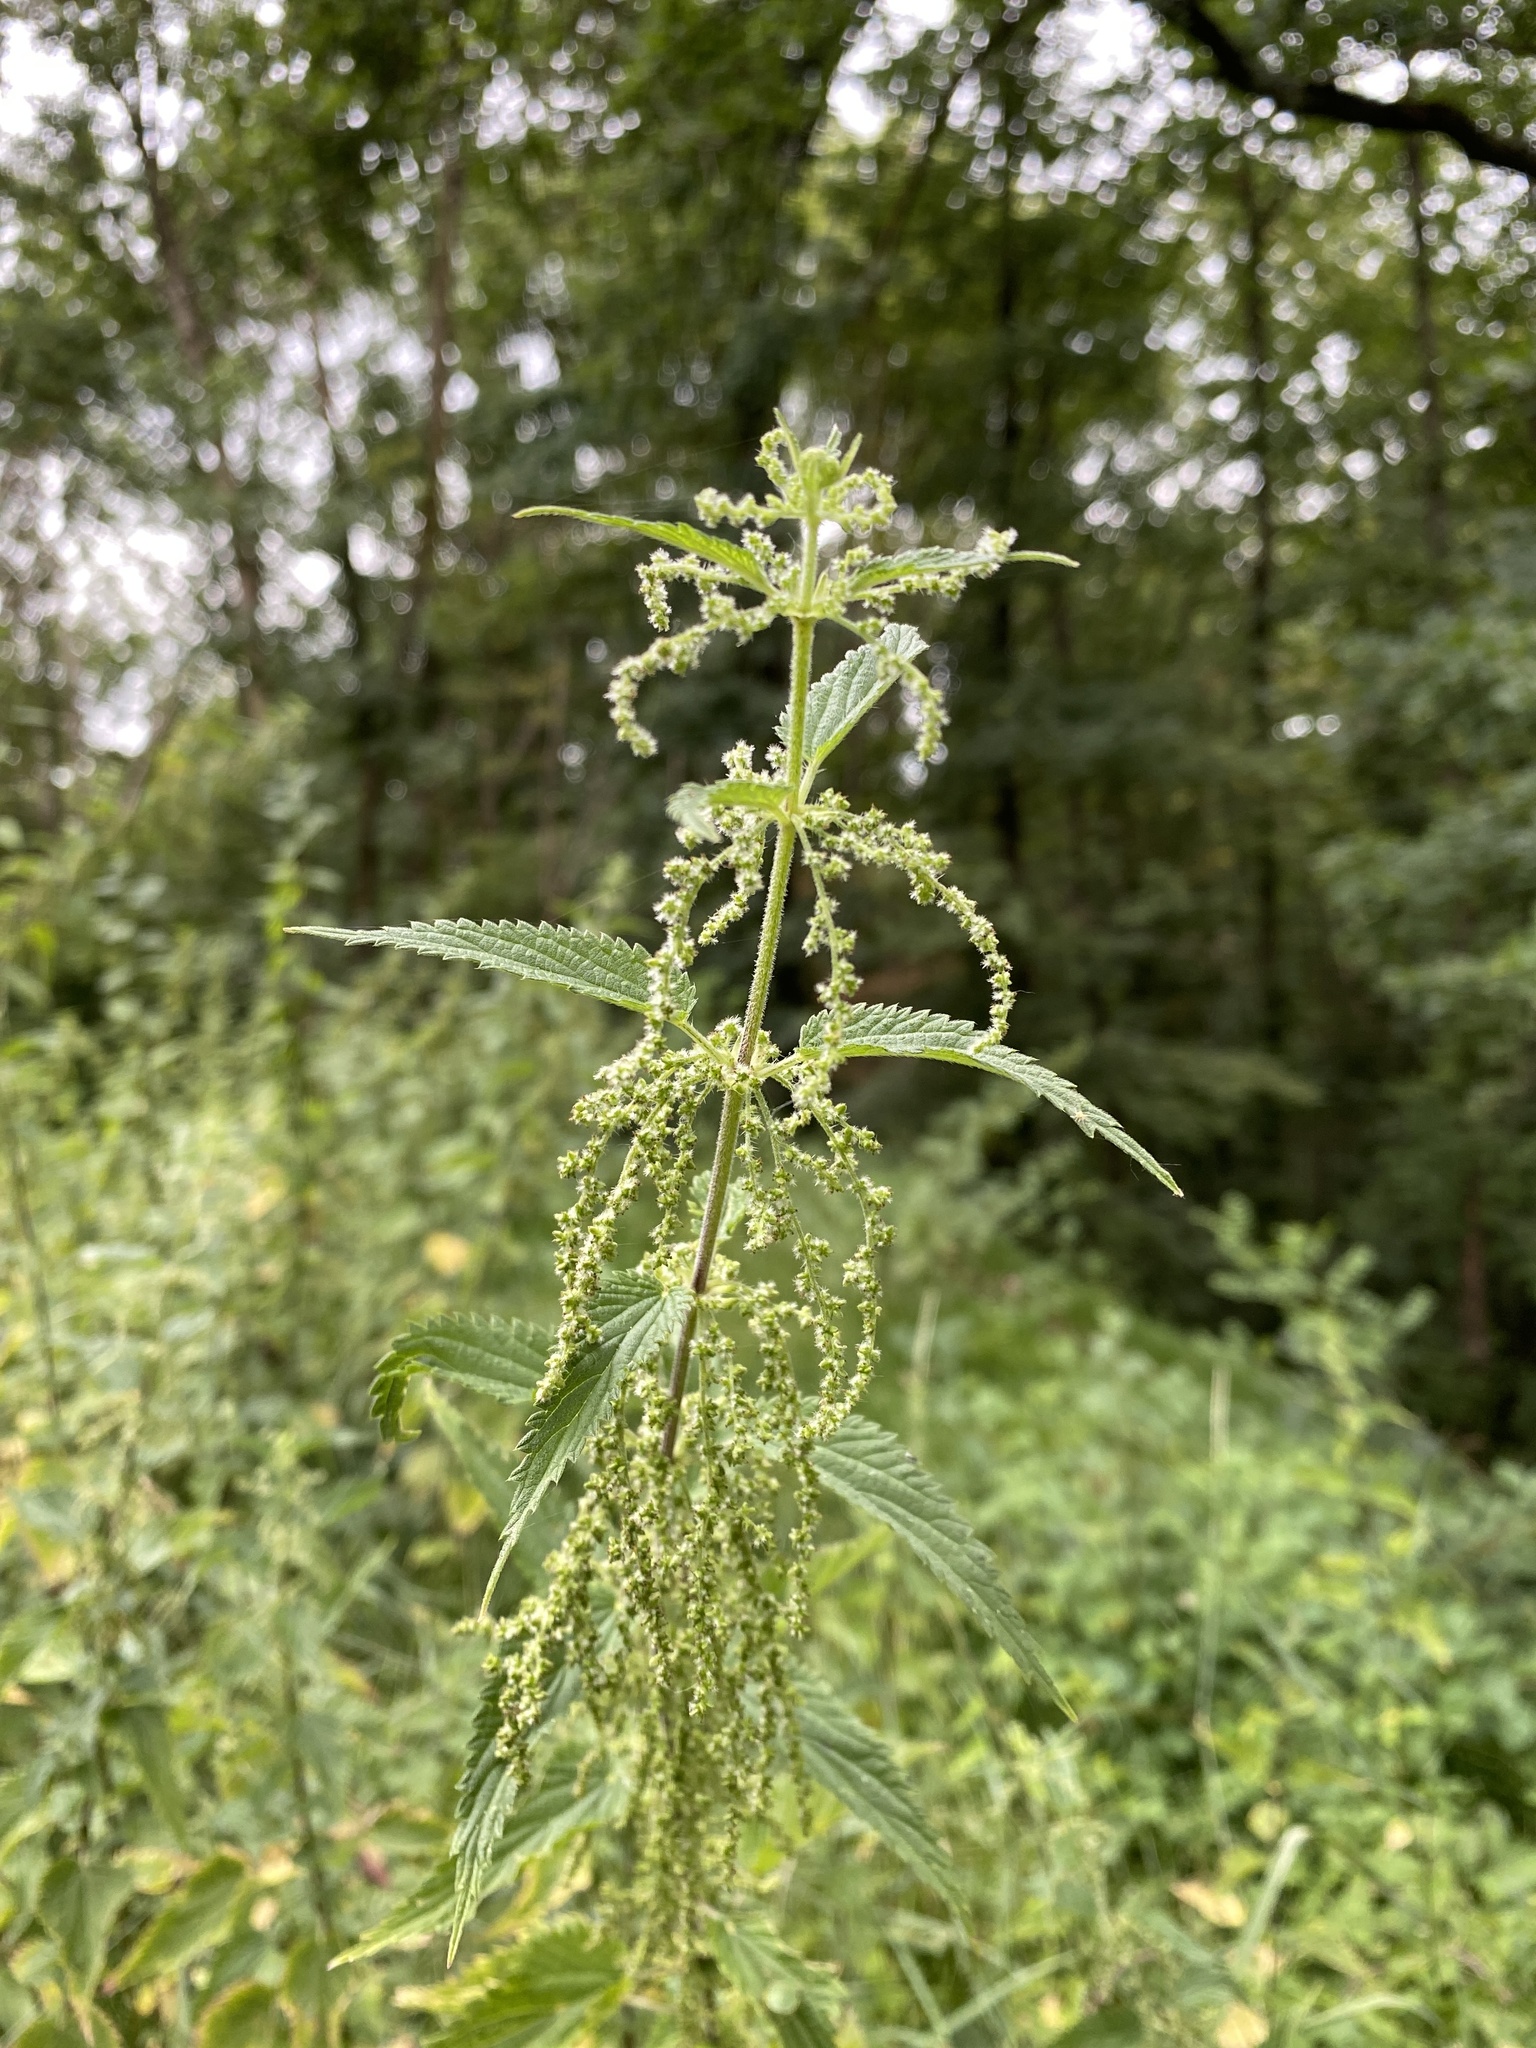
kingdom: Plantae
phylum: Tracheophyta
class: Magnoliopsida
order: Rosales
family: Urticaceae
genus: Urtica
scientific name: Urtica dioica
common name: Common nettle
